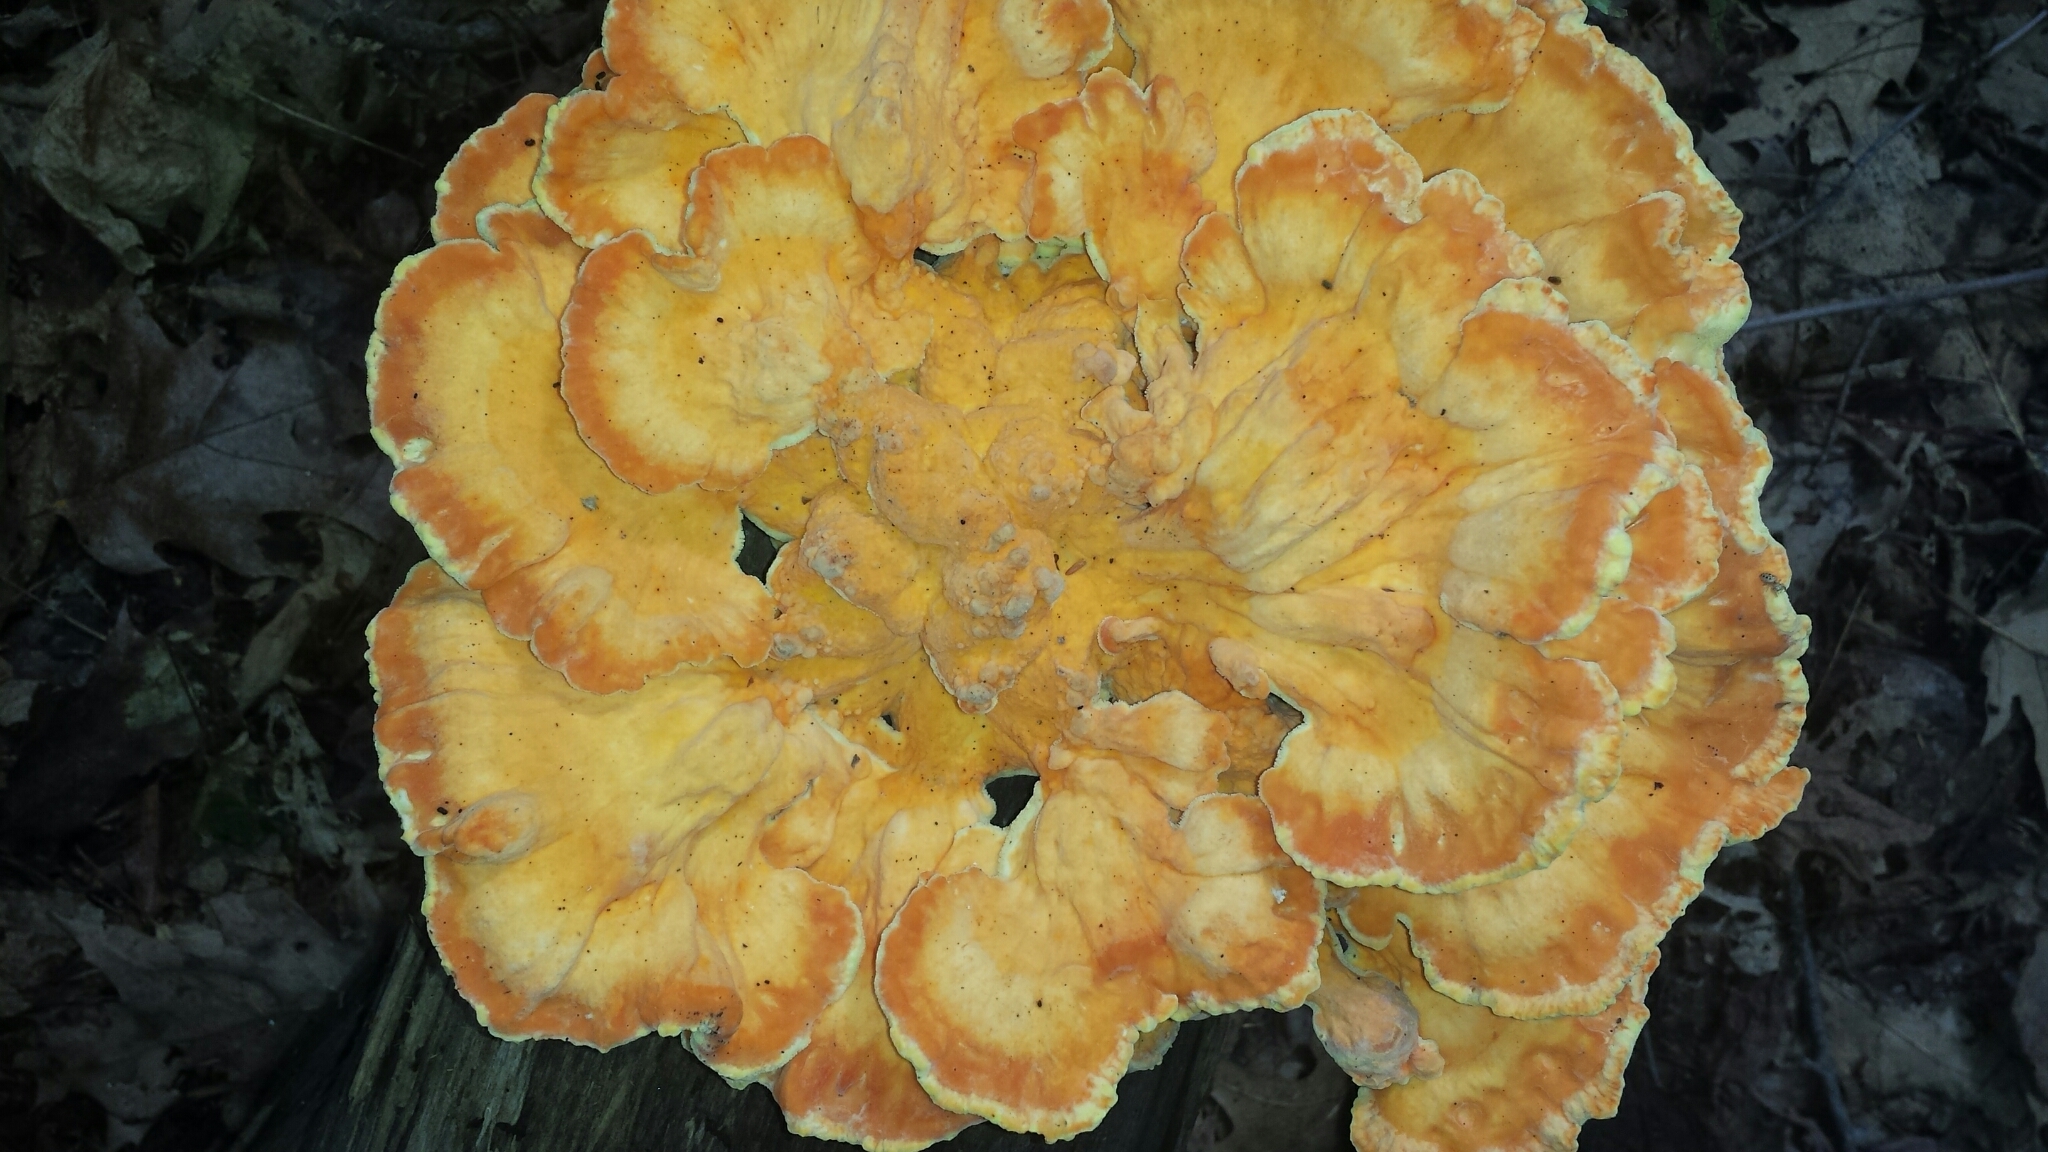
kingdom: Fungi
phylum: Basidiomycota
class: Agaricomycetes
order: Polyporales
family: Laetiporaceae
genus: Laetiporus
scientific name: Laetiporus sulphureus
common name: Chicken of the woods
